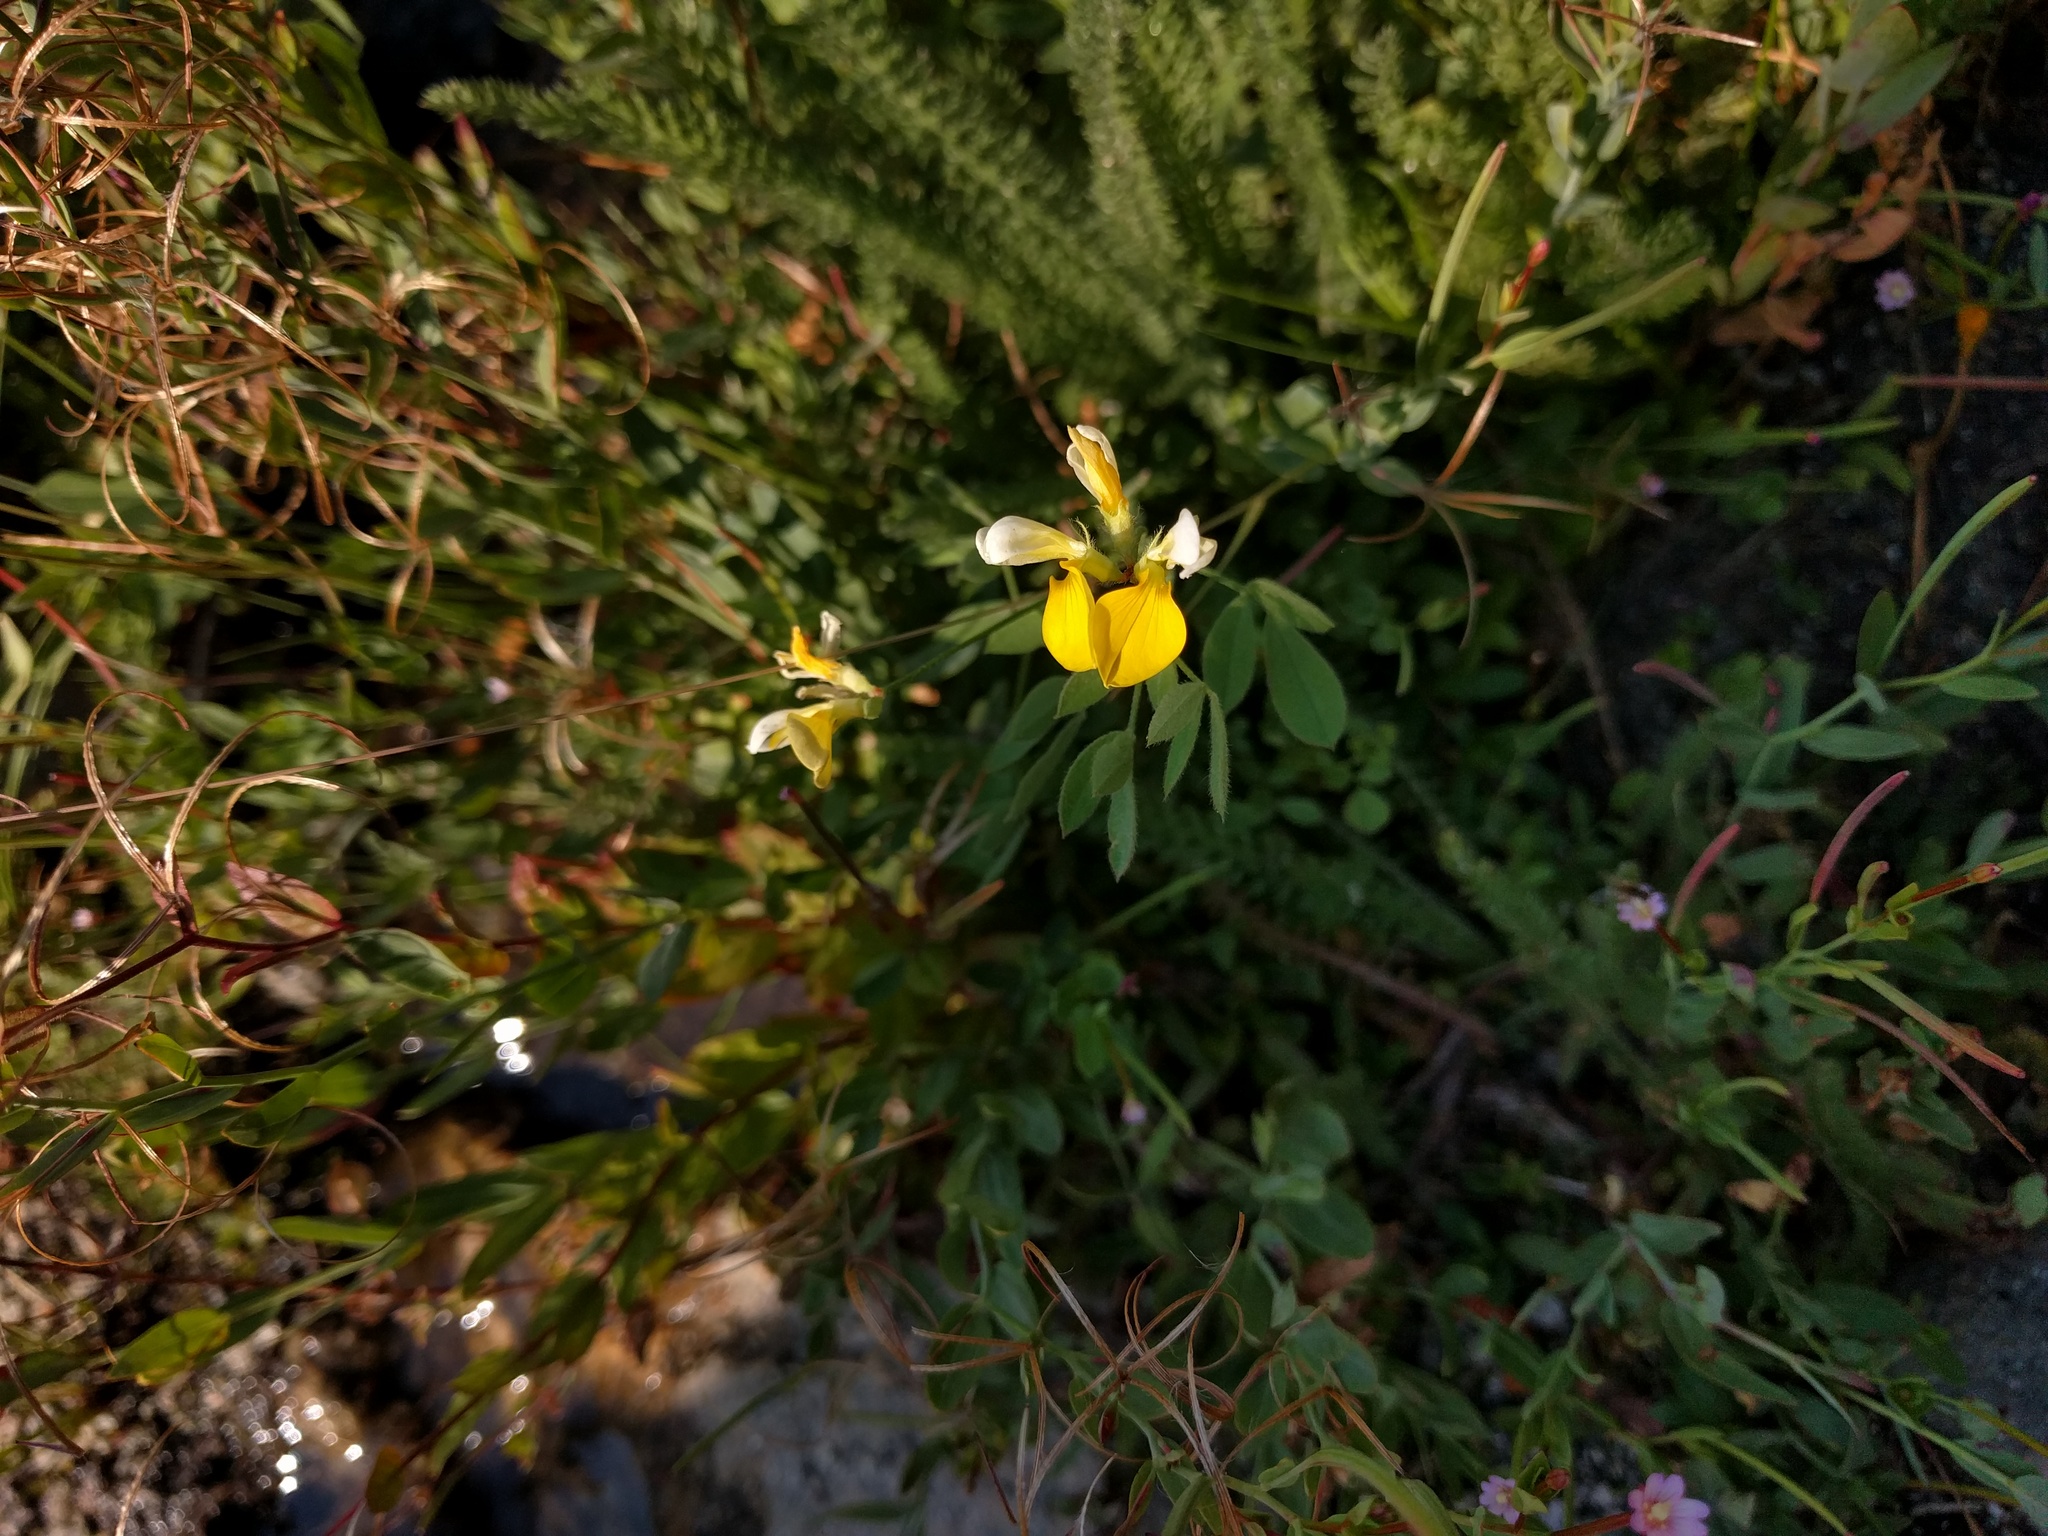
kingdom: Plantae
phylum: Tracheophyta
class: Magnoliopsida
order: Fabales
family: Fabaceae
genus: Hosackia
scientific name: Hosackia oblongifolia
